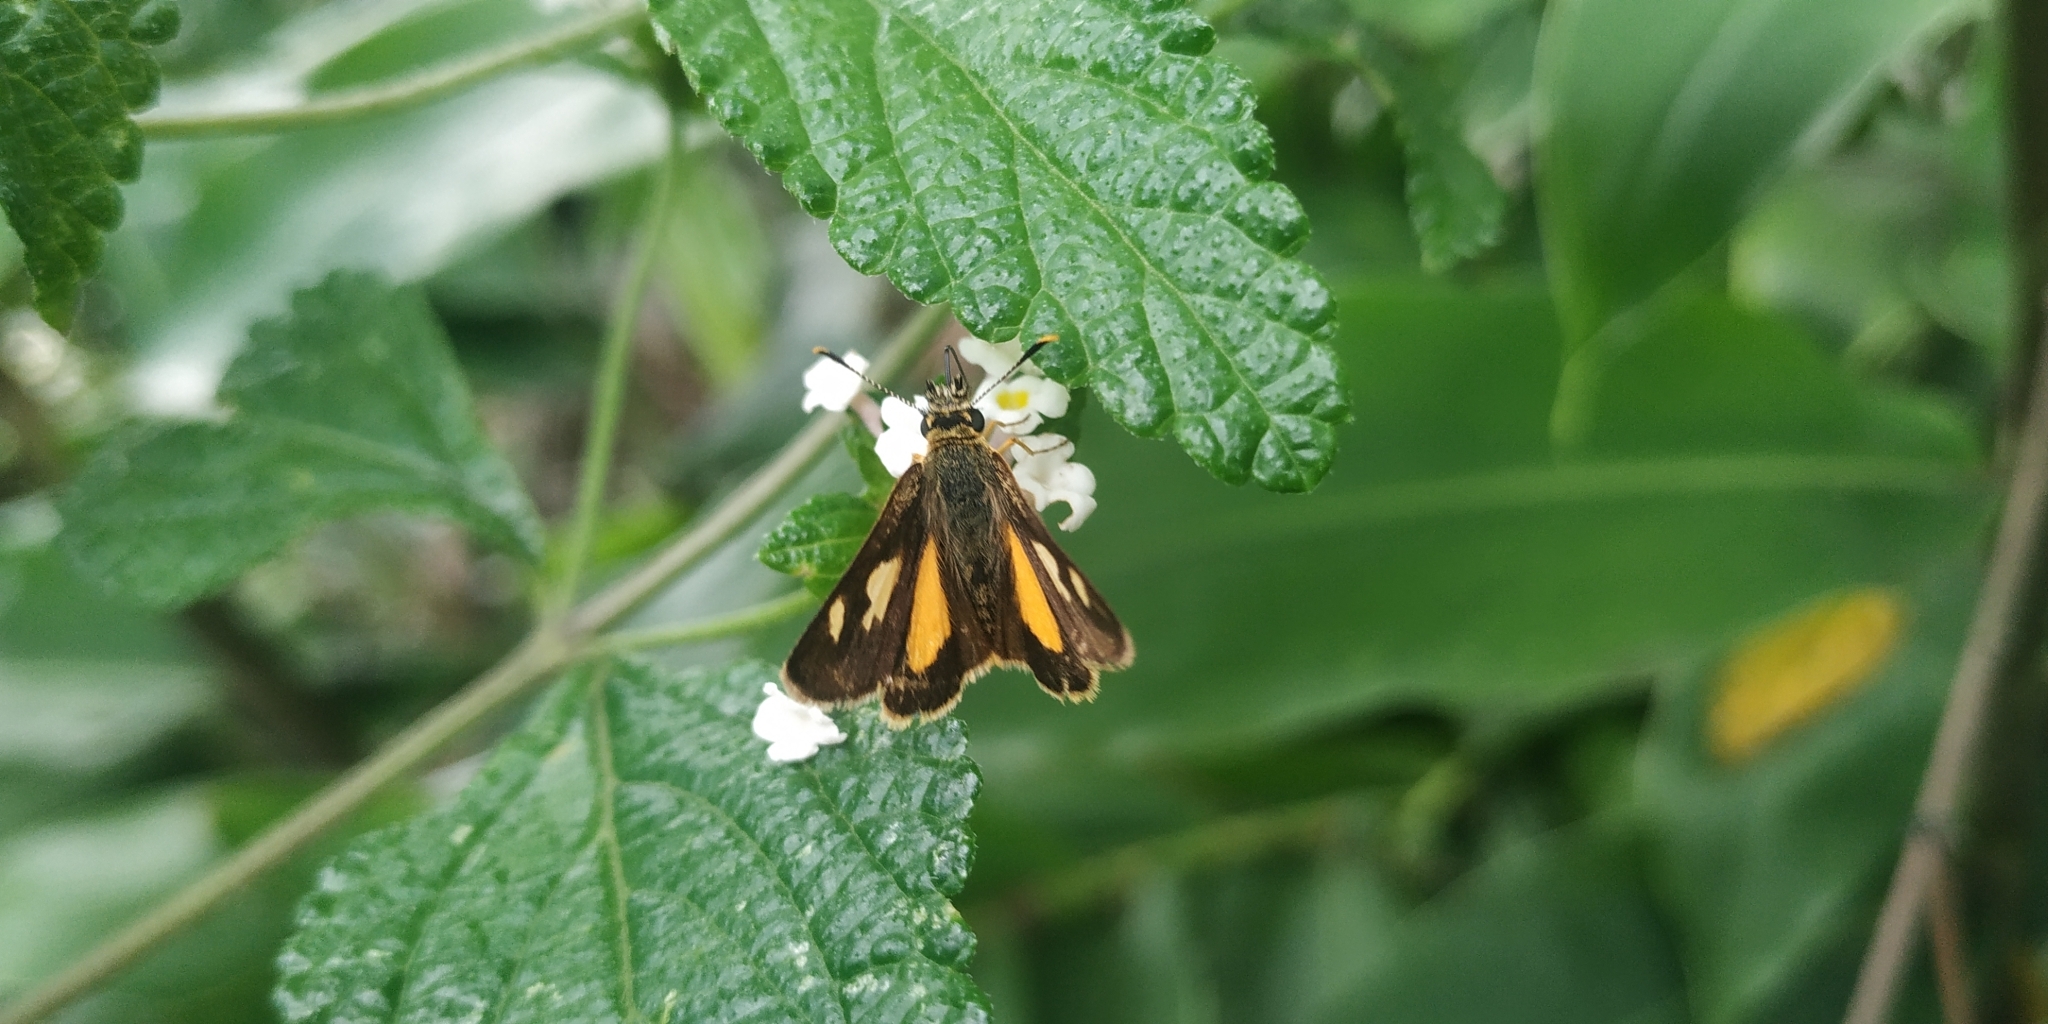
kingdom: Animalia
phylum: Arthropoda
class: Insecta
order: Lepidoptera
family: Hesperiidae
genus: Dalla
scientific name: Dalla lalage
